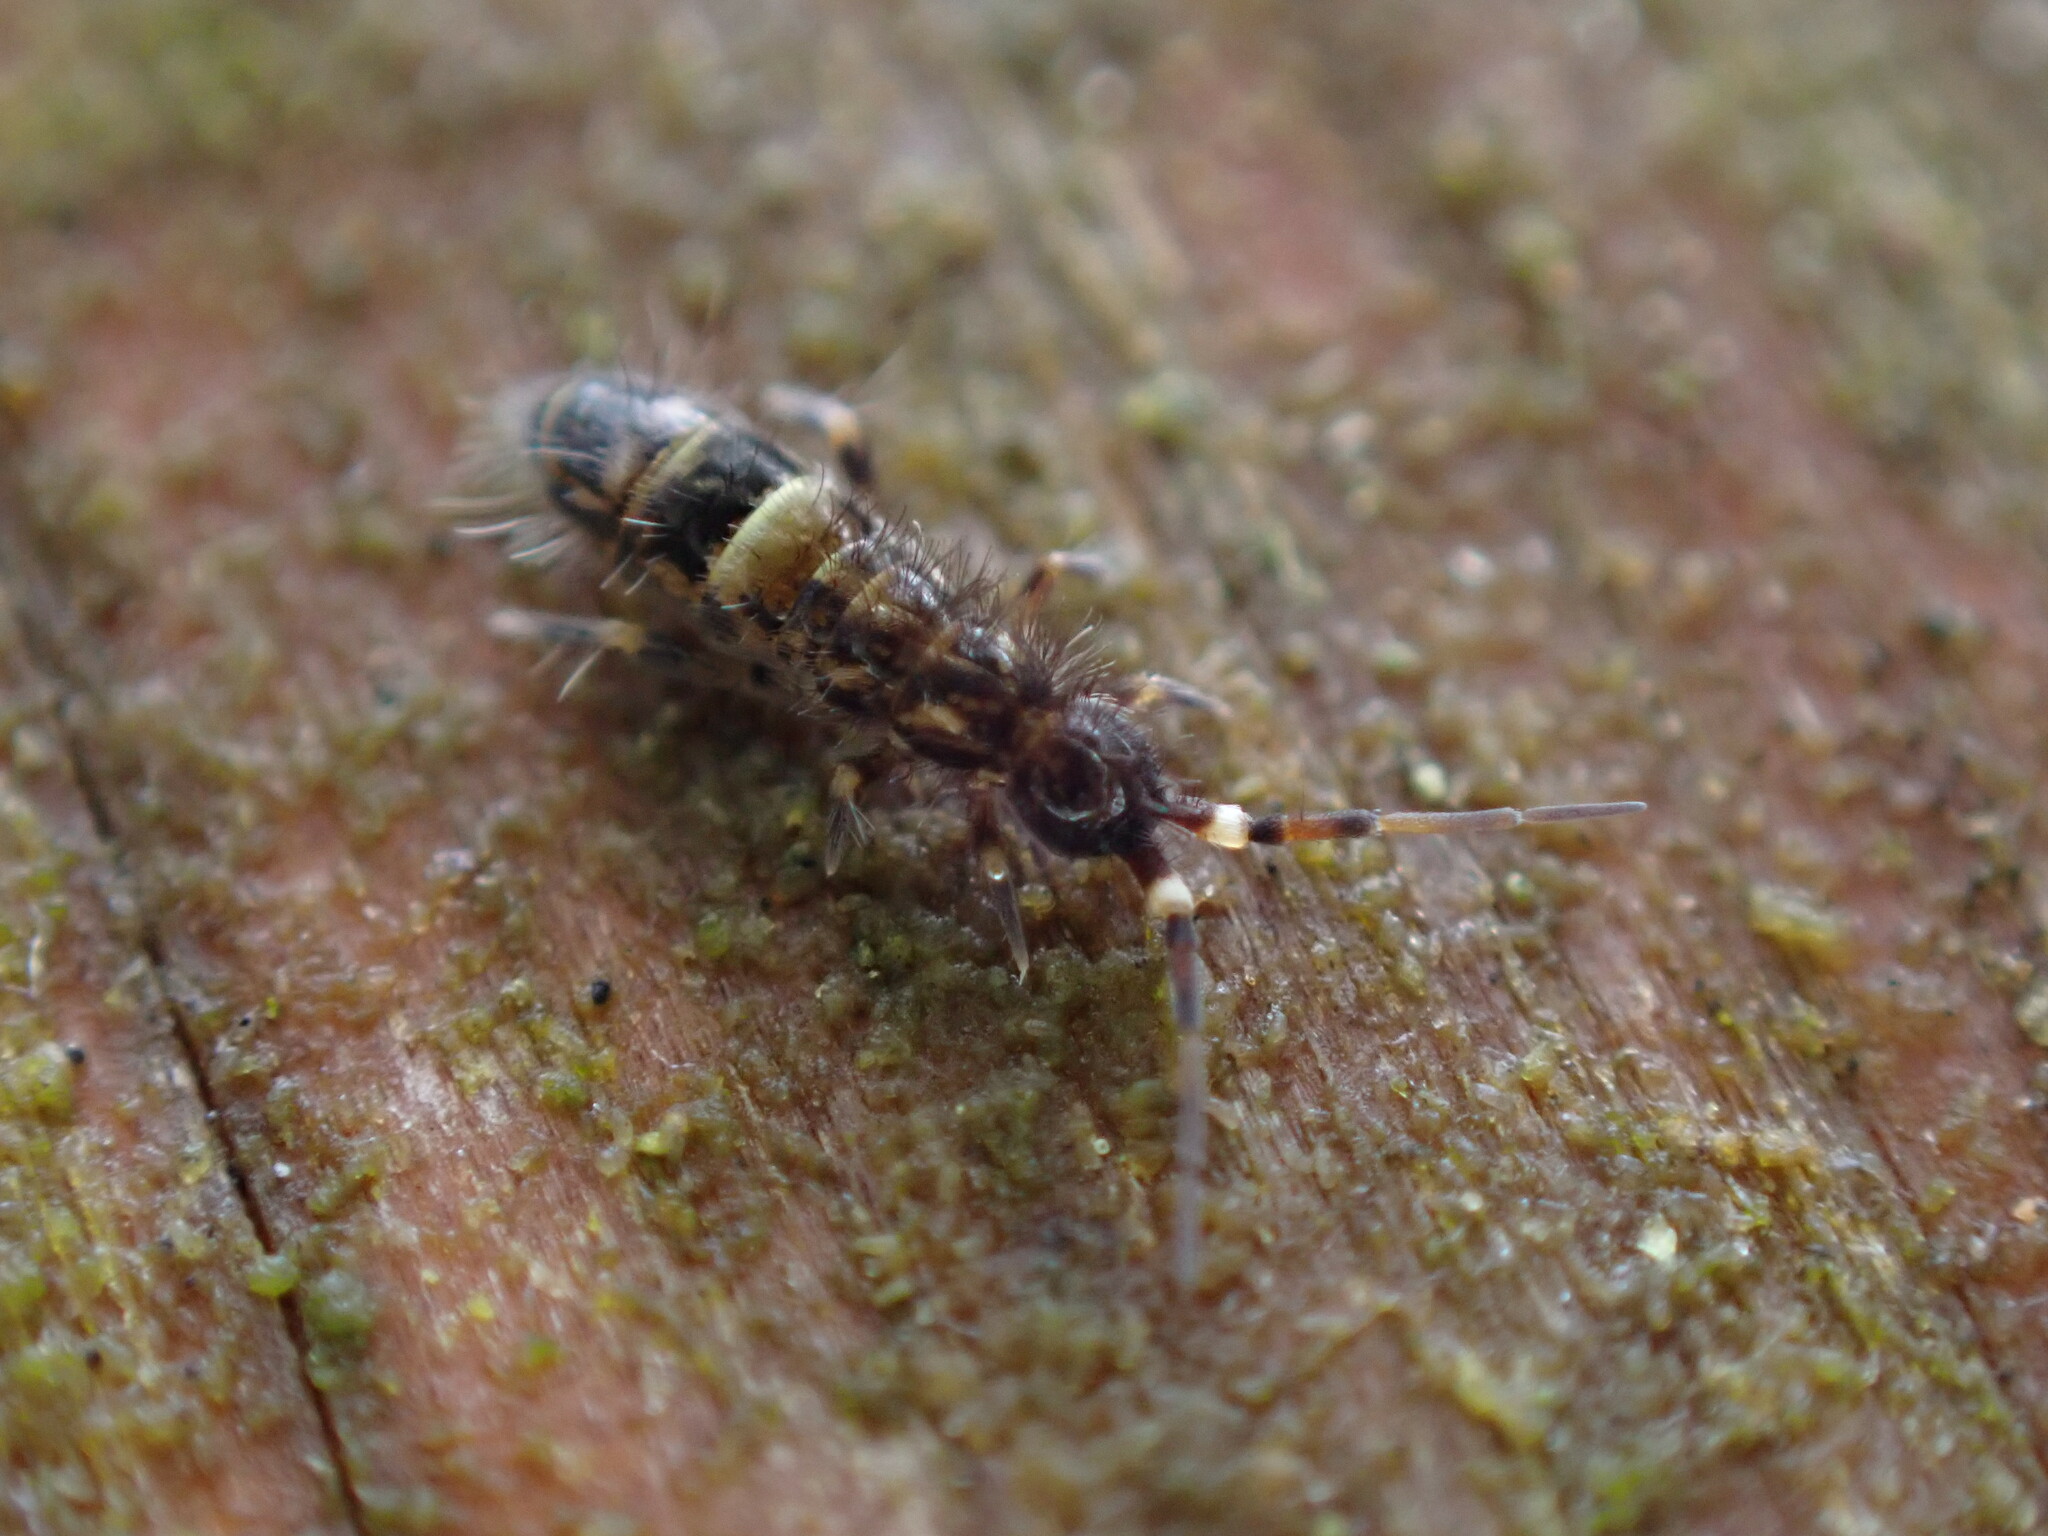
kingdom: Animalia
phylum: Arthropoda
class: Collembola
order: Entomobryomorpha
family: Orchesellidae
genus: Orchesella
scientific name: Orchesella cincta
